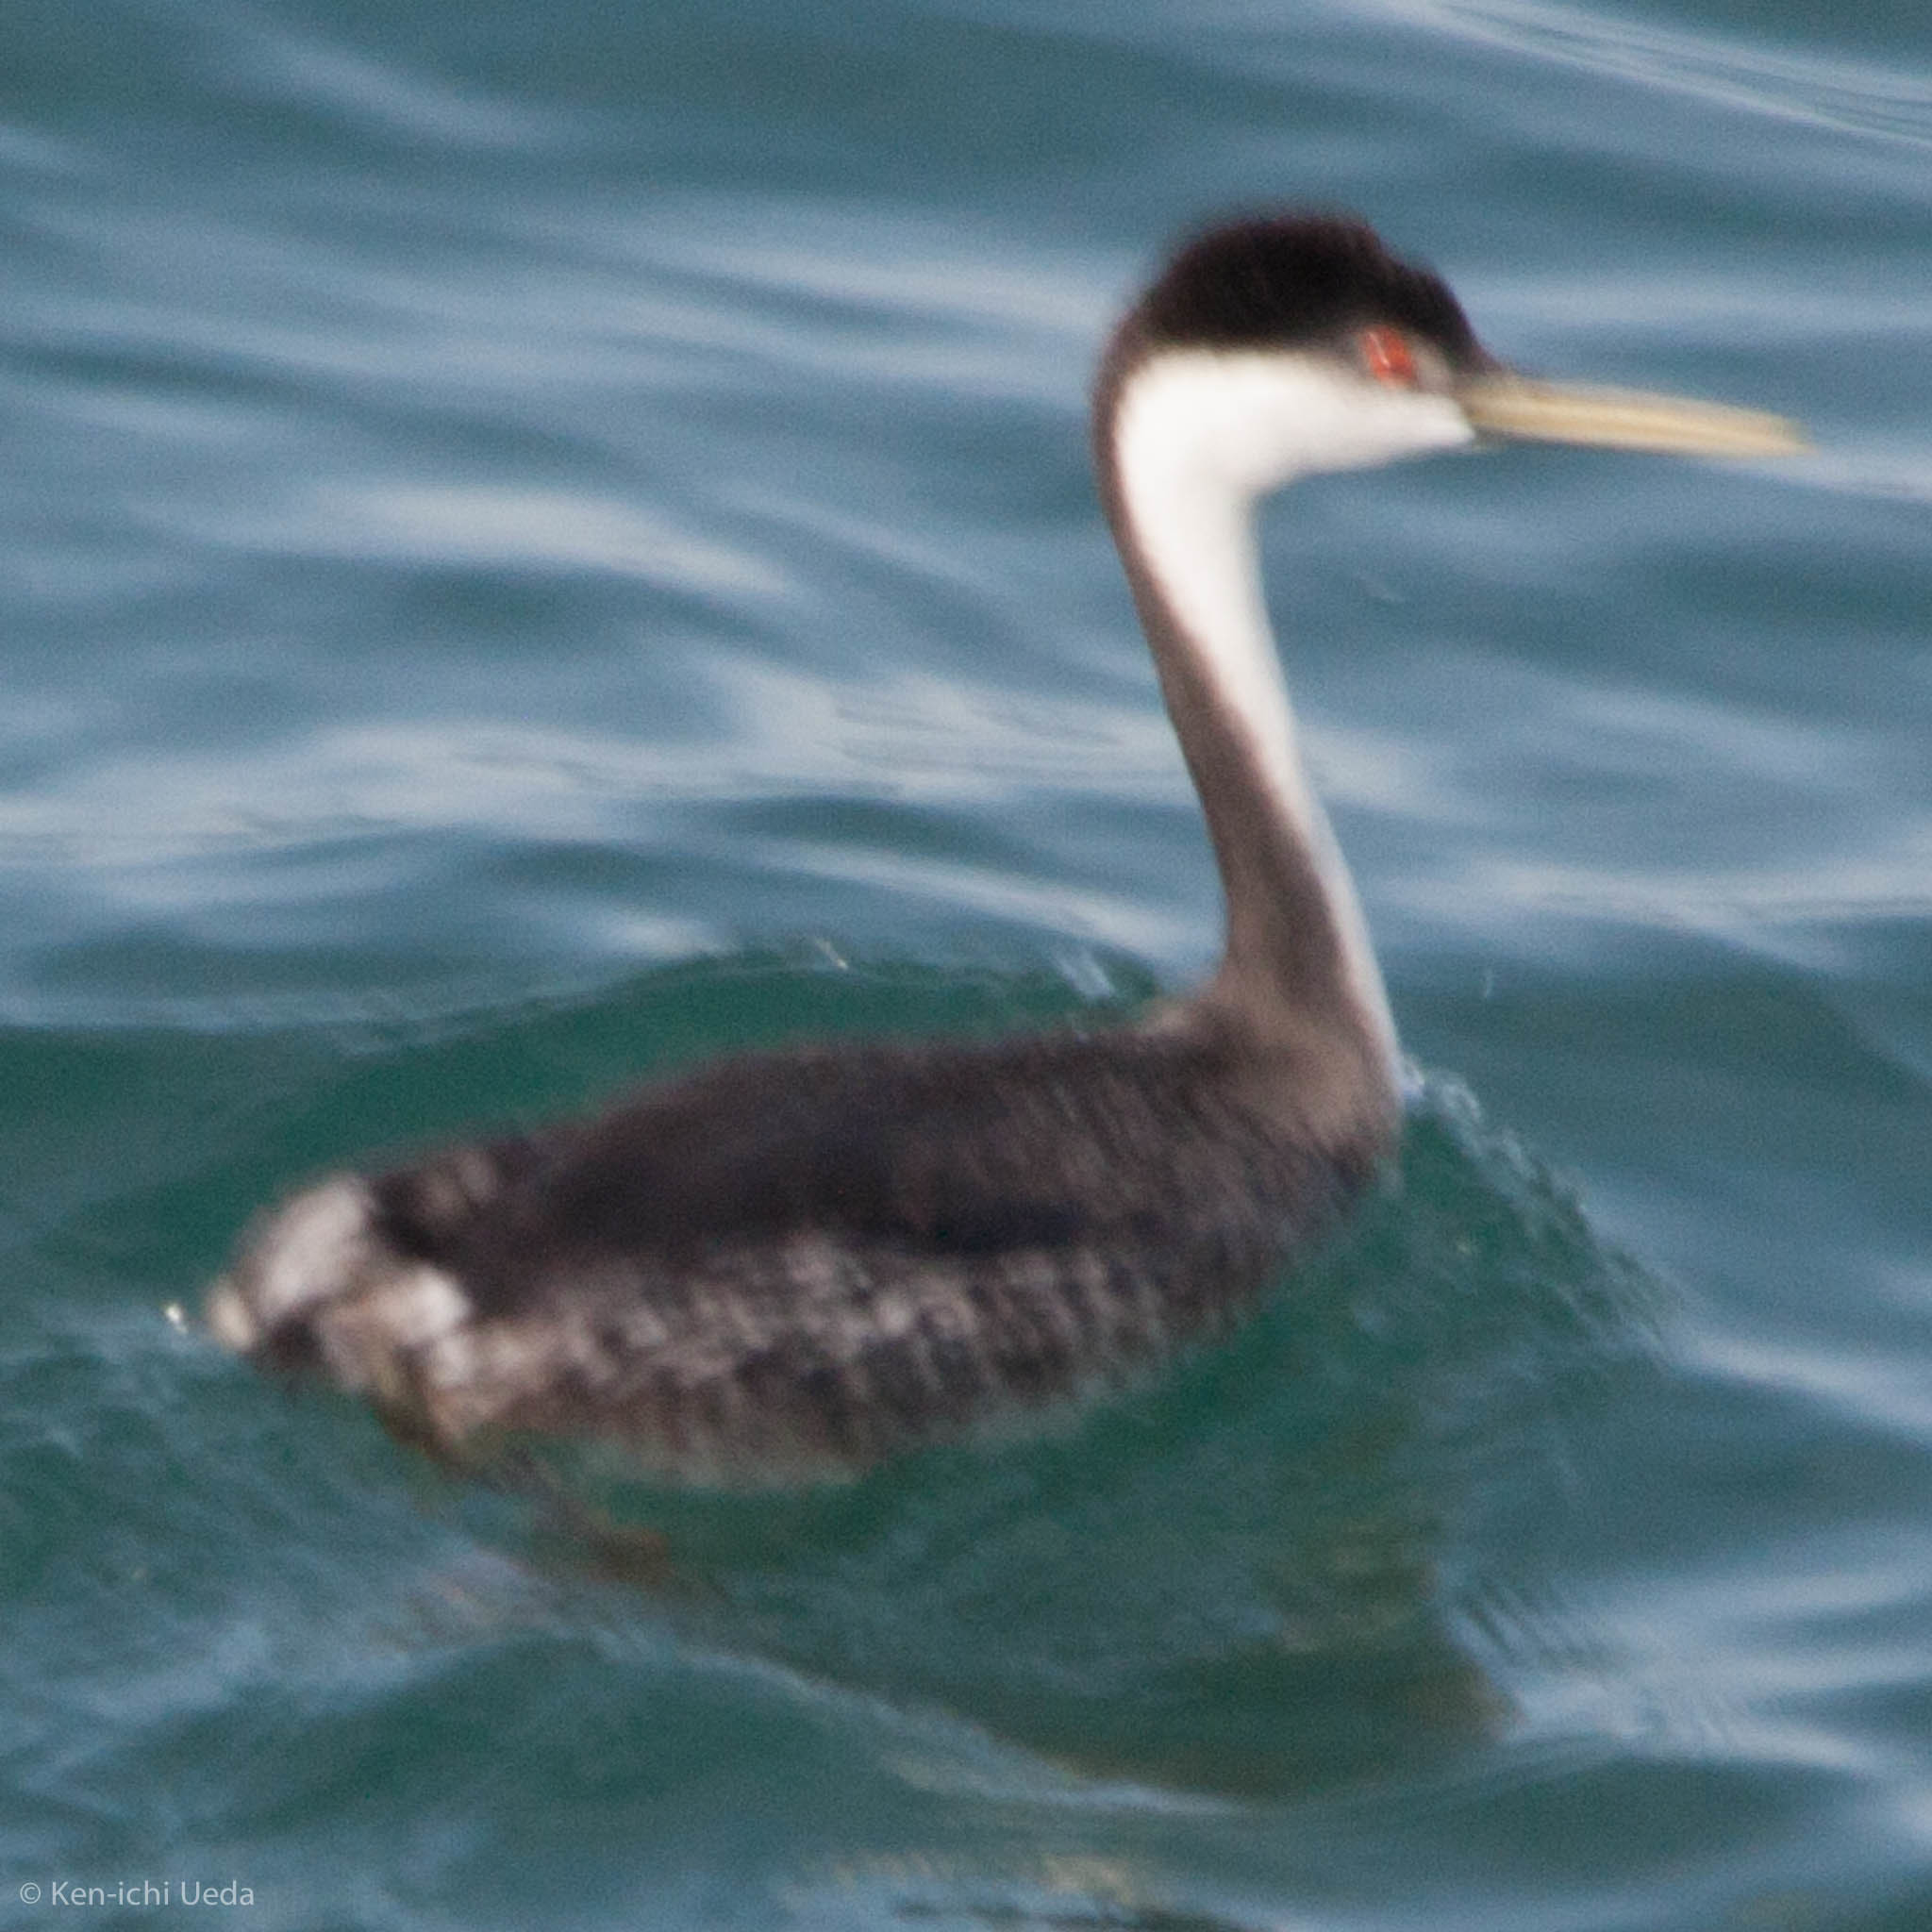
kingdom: Animalia
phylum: Chordata
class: Aves
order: Podicipediformes
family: Podicipedidae
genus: Aechmophorus
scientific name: Aechmophorus occidentalis
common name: Western grebe
